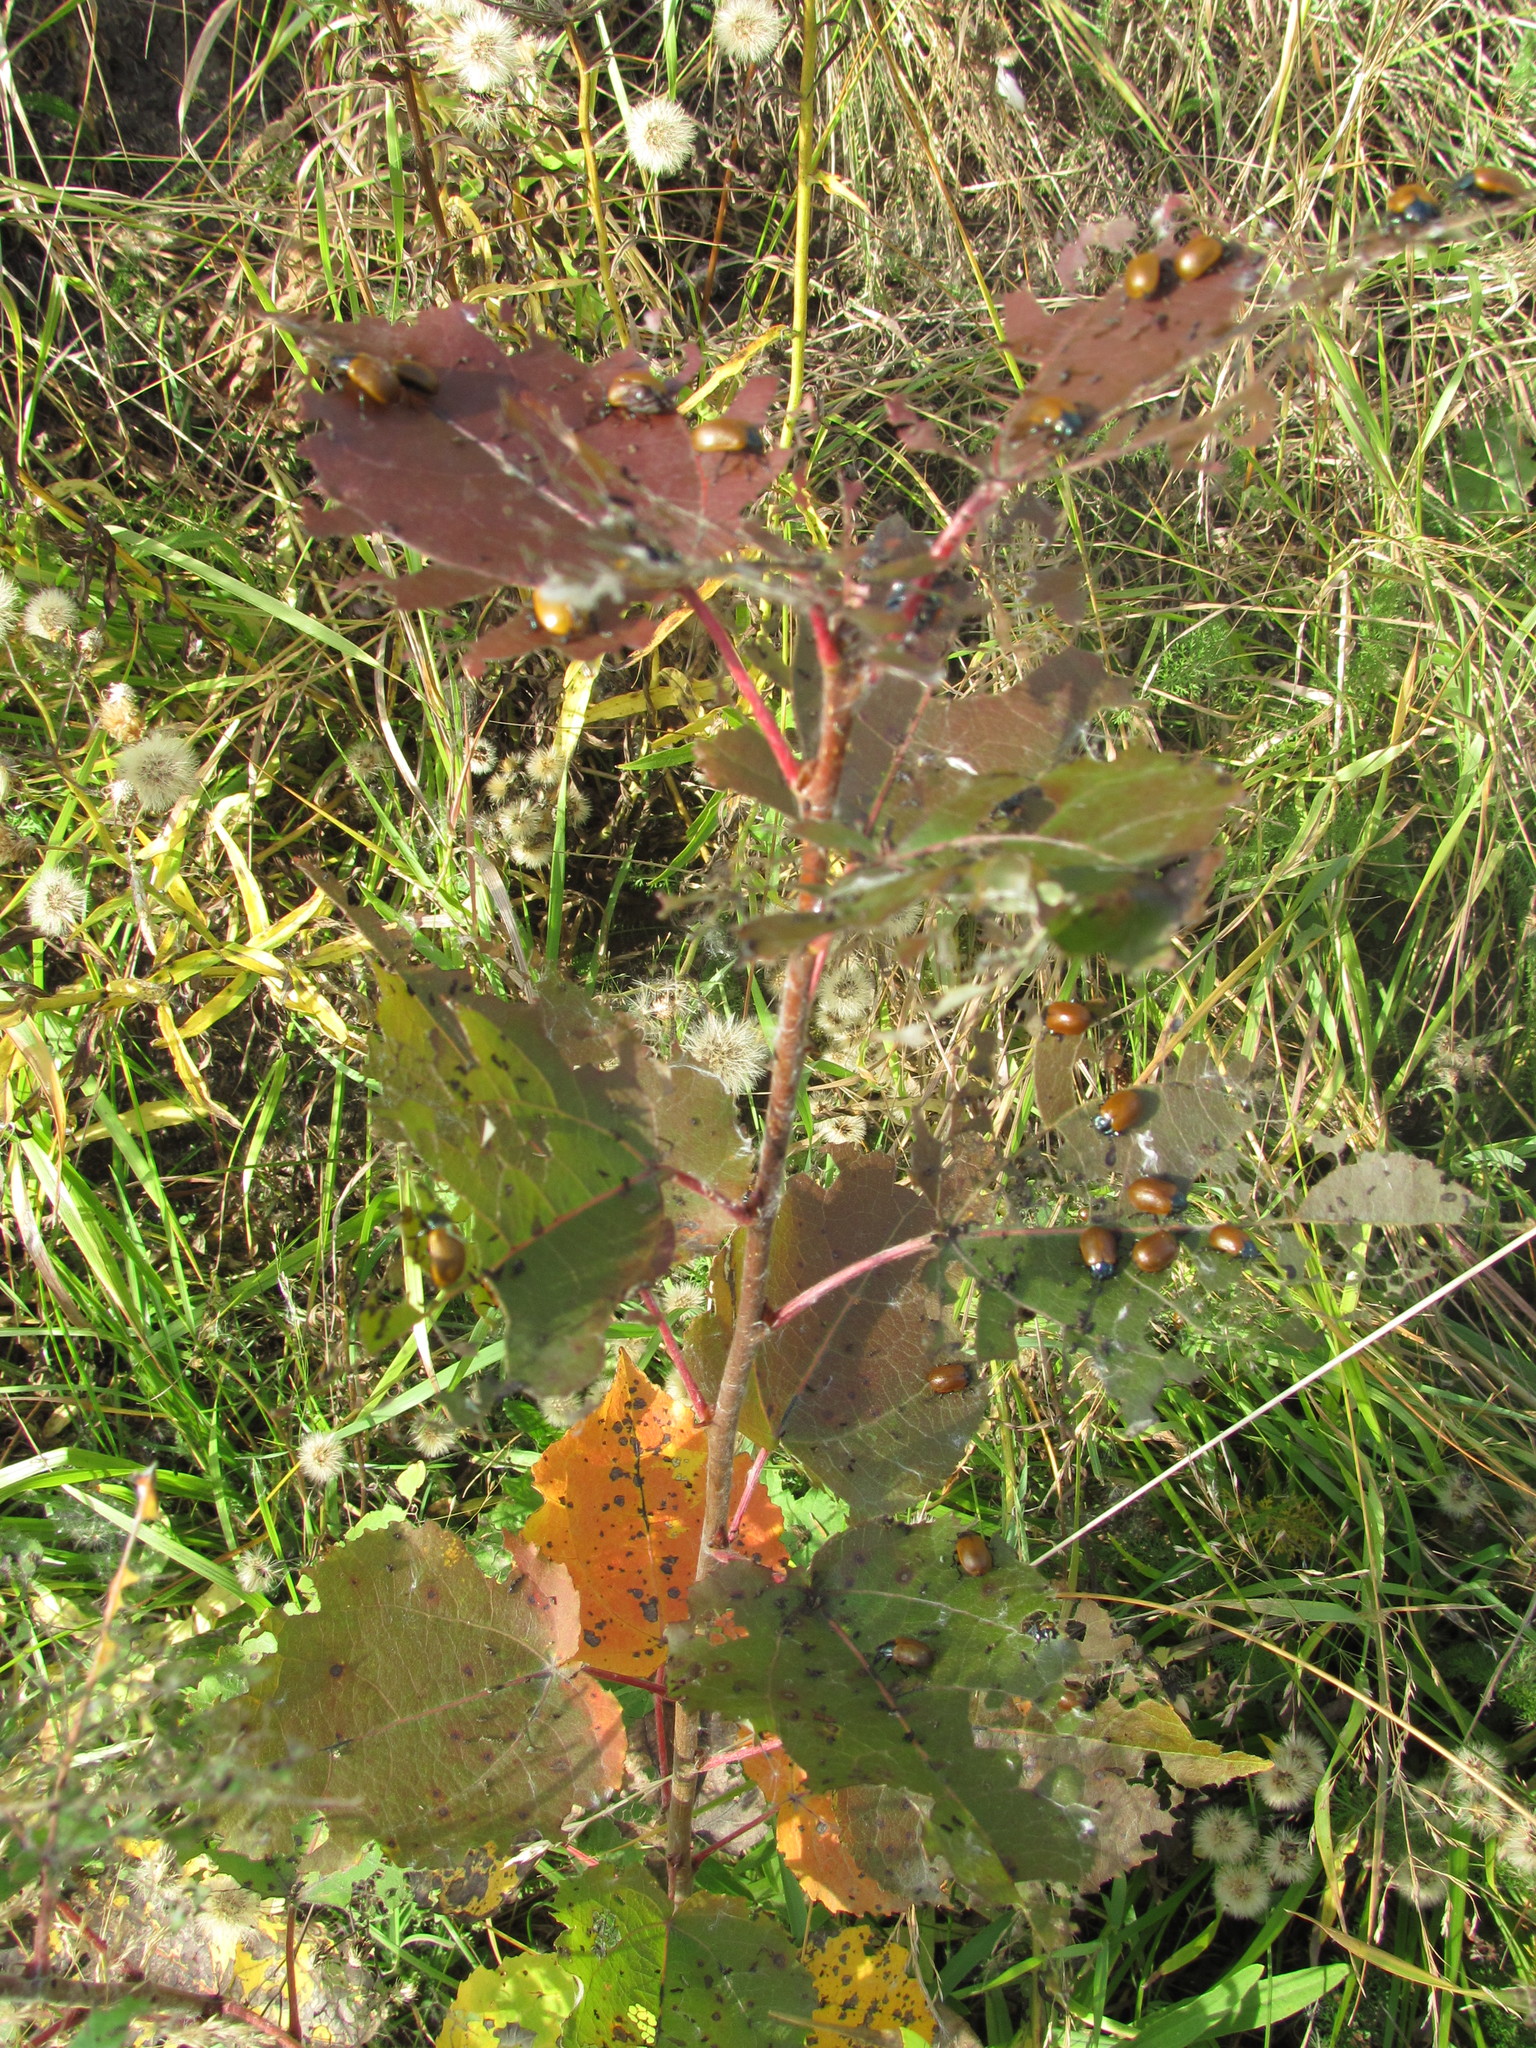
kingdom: Animalia
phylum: Arthropoda
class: Insecta
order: Coleoptera
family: Chrysomelidae
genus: Chrysomela
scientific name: Chrysomela populi
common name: Red poplar leaf beetle
